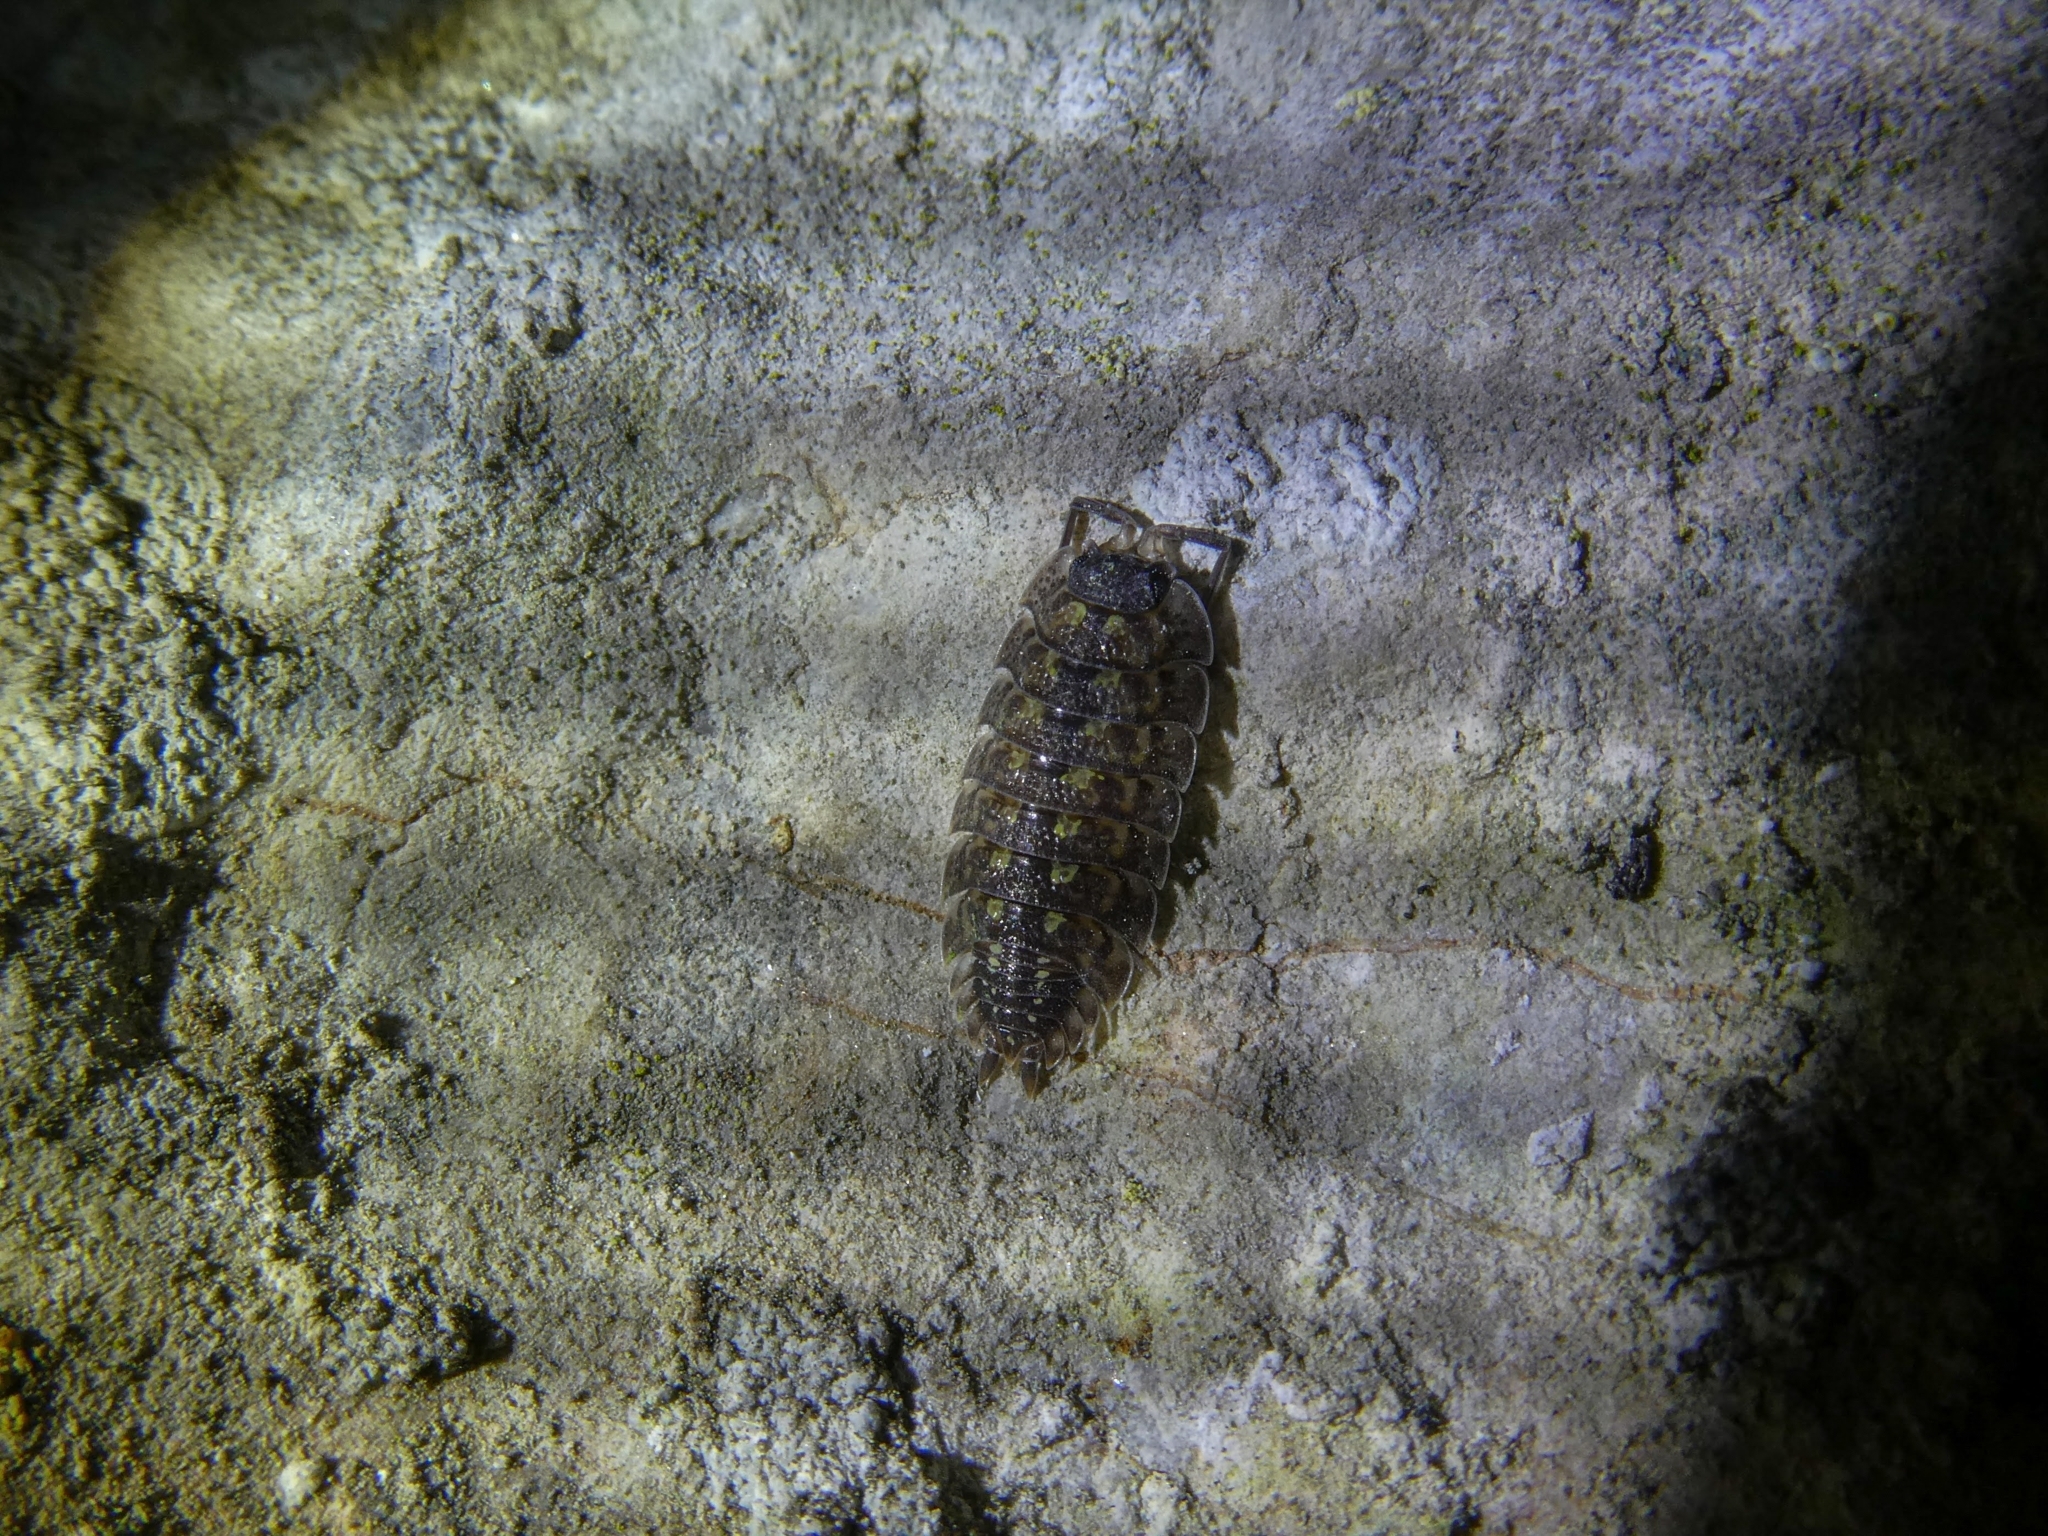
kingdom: Animalia
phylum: Arthropoda
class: Malacostraca
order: Isopoda
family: Porcellionidae
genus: Porcellio
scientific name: Porcellio spinicornis
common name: Painted woodlouse
